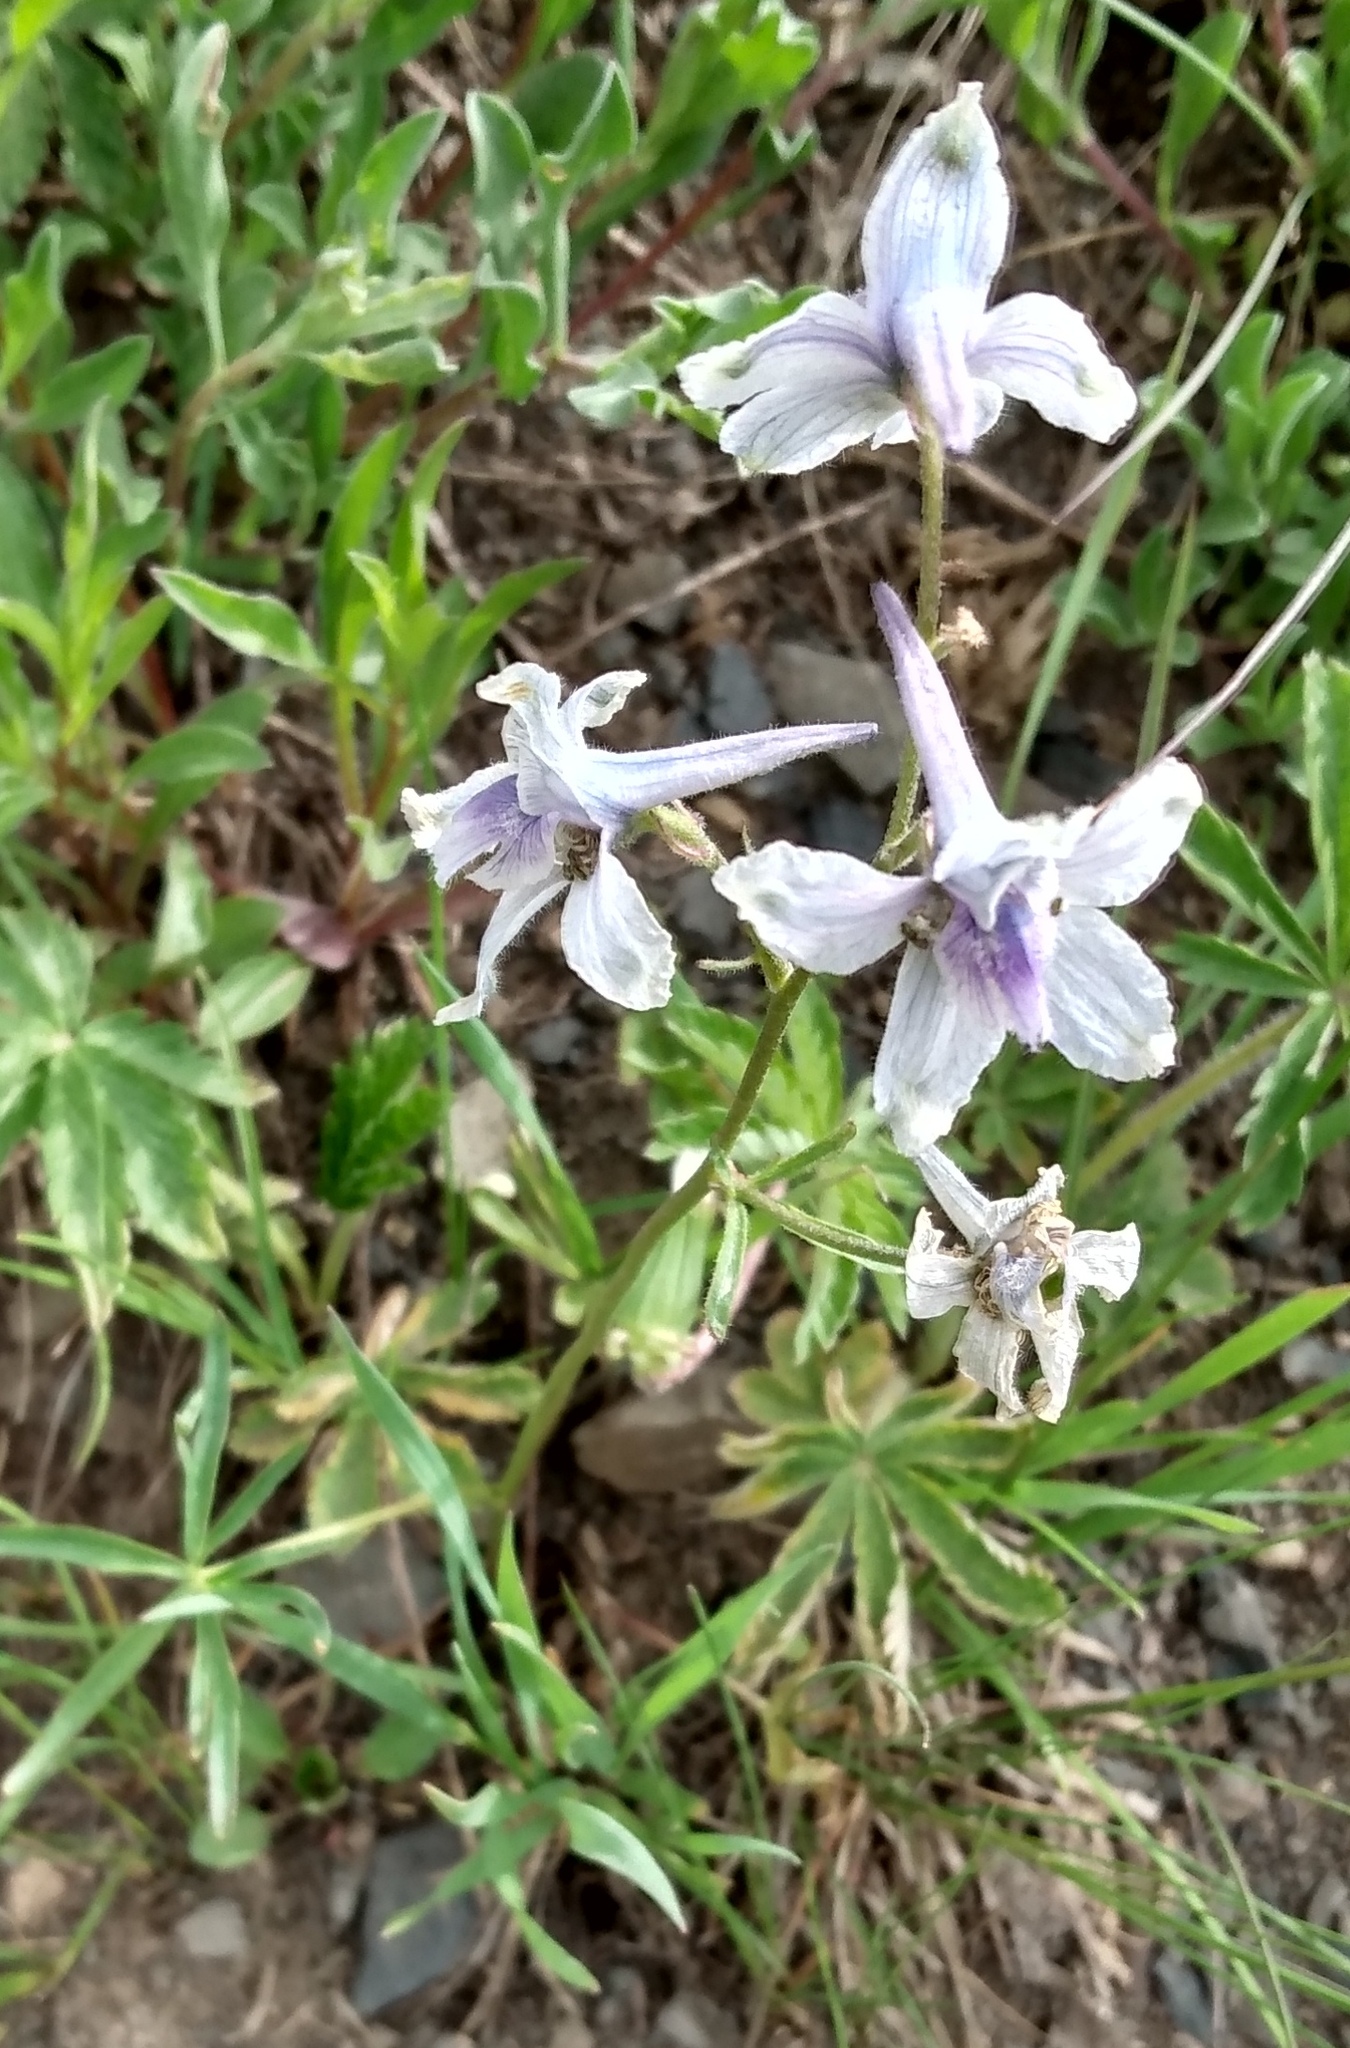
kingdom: Plantae
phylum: Tracheophyta
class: Magnoliopsida
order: Ranunculales
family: Ranunculaceae
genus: Delphinium
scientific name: Delphinium nuttallianum
